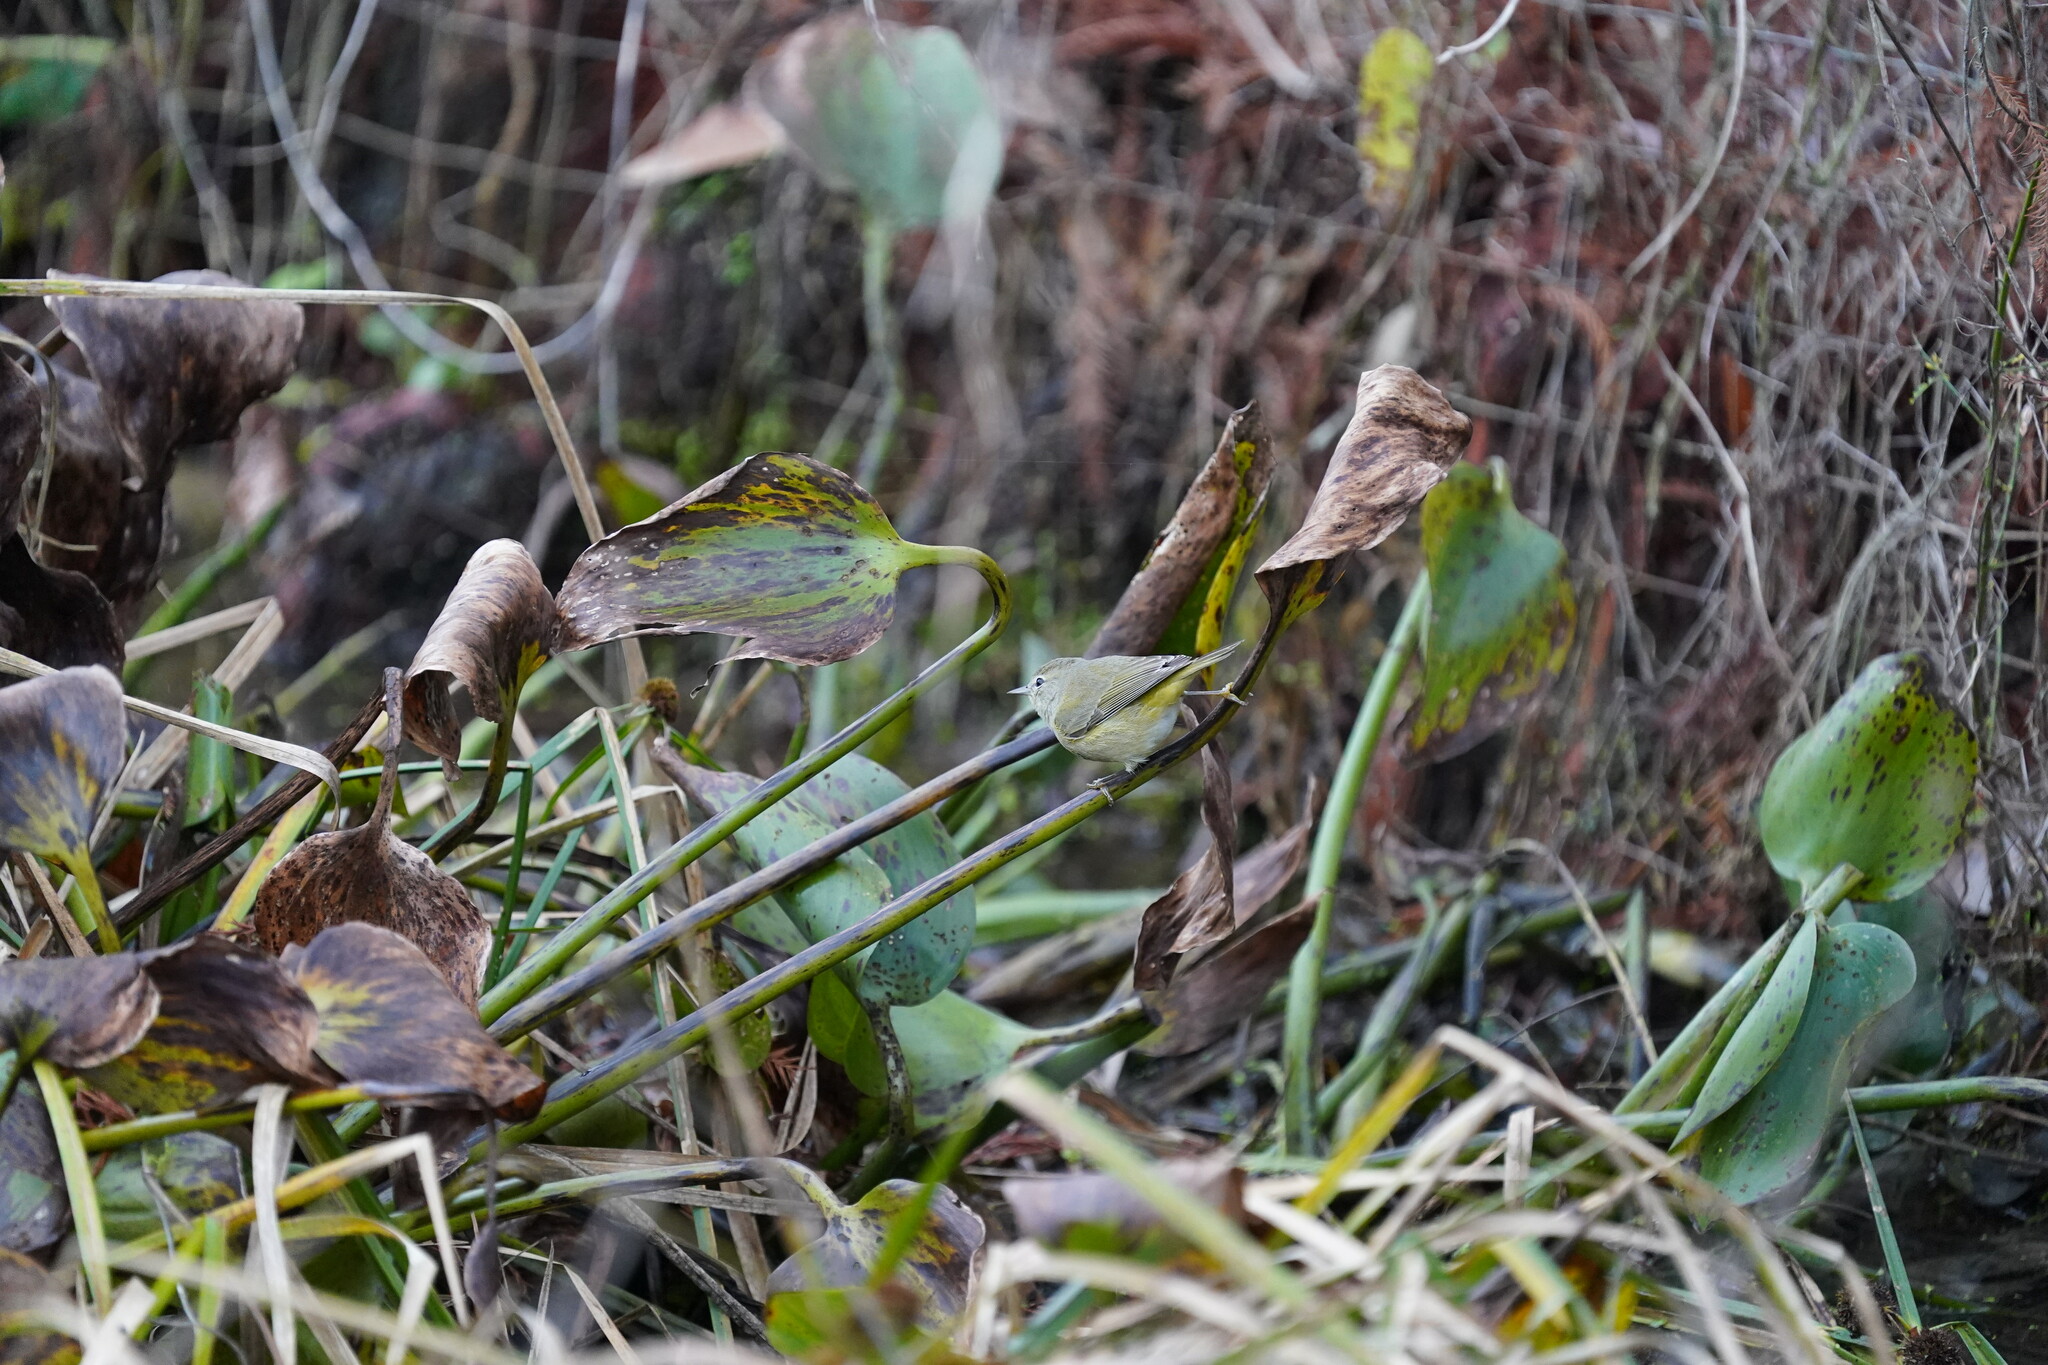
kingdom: Animalia
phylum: Chordata
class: Aves
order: Passeriformes
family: Parulidae
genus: Leiothlypis
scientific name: Leiothlypis celata
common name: Orange-crowned warbler
